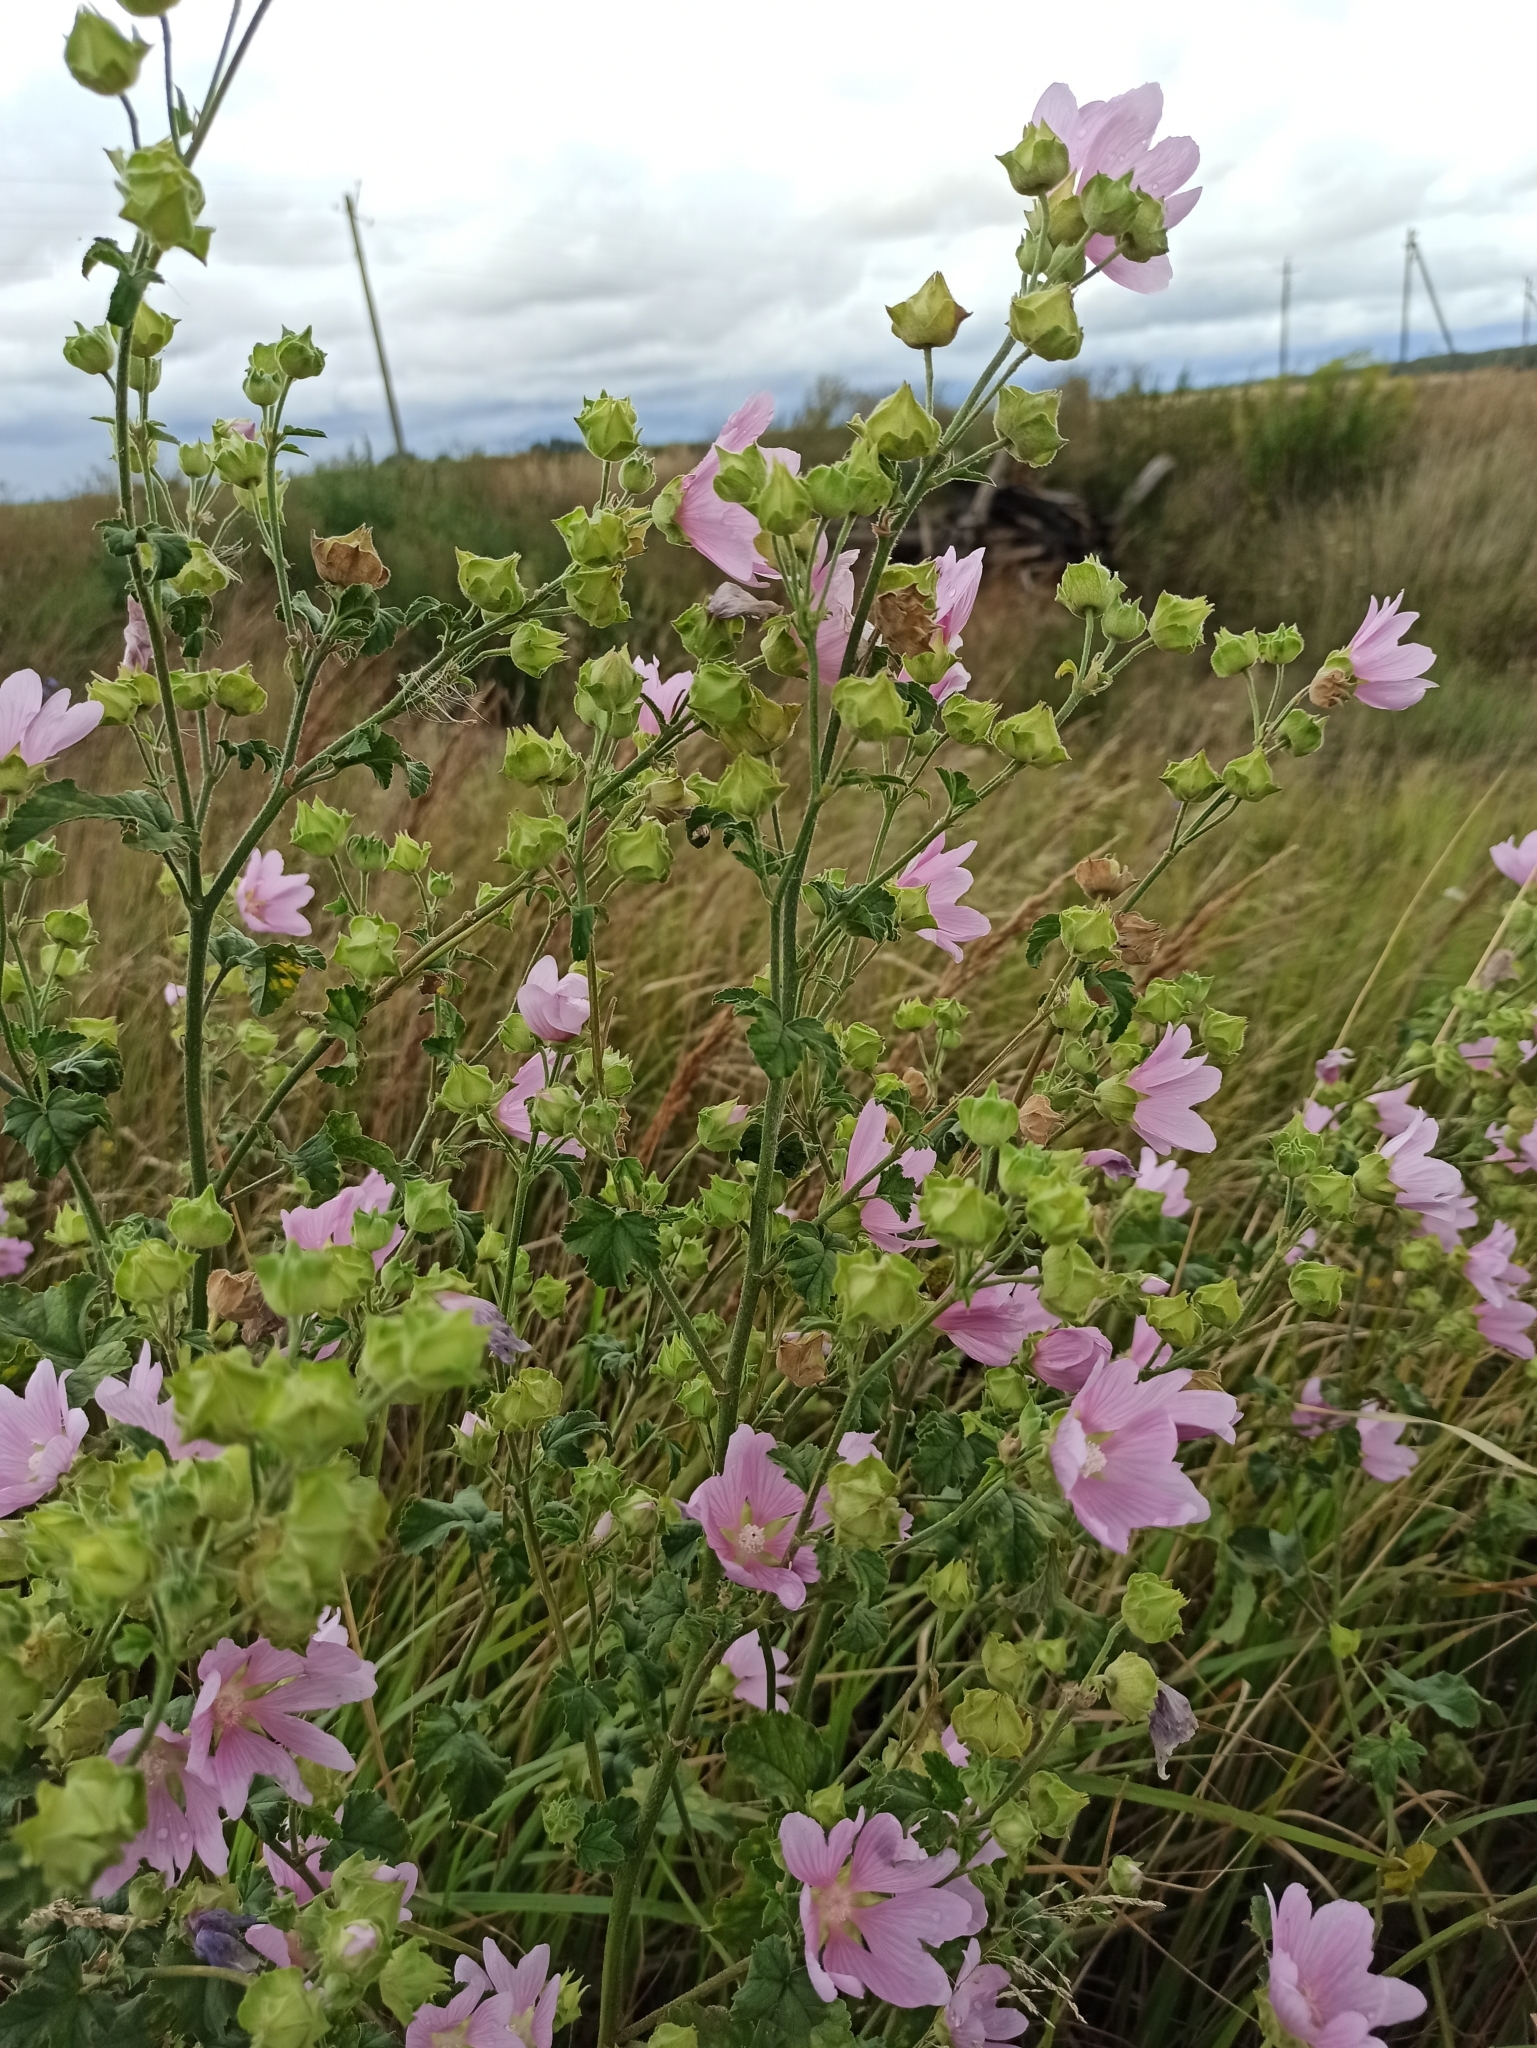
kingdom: Plantae
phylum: Tracheophyta
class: Magnoliopsida
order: Malvales
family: Malvaceae
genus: Malva
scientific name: Malva thuringiaca
